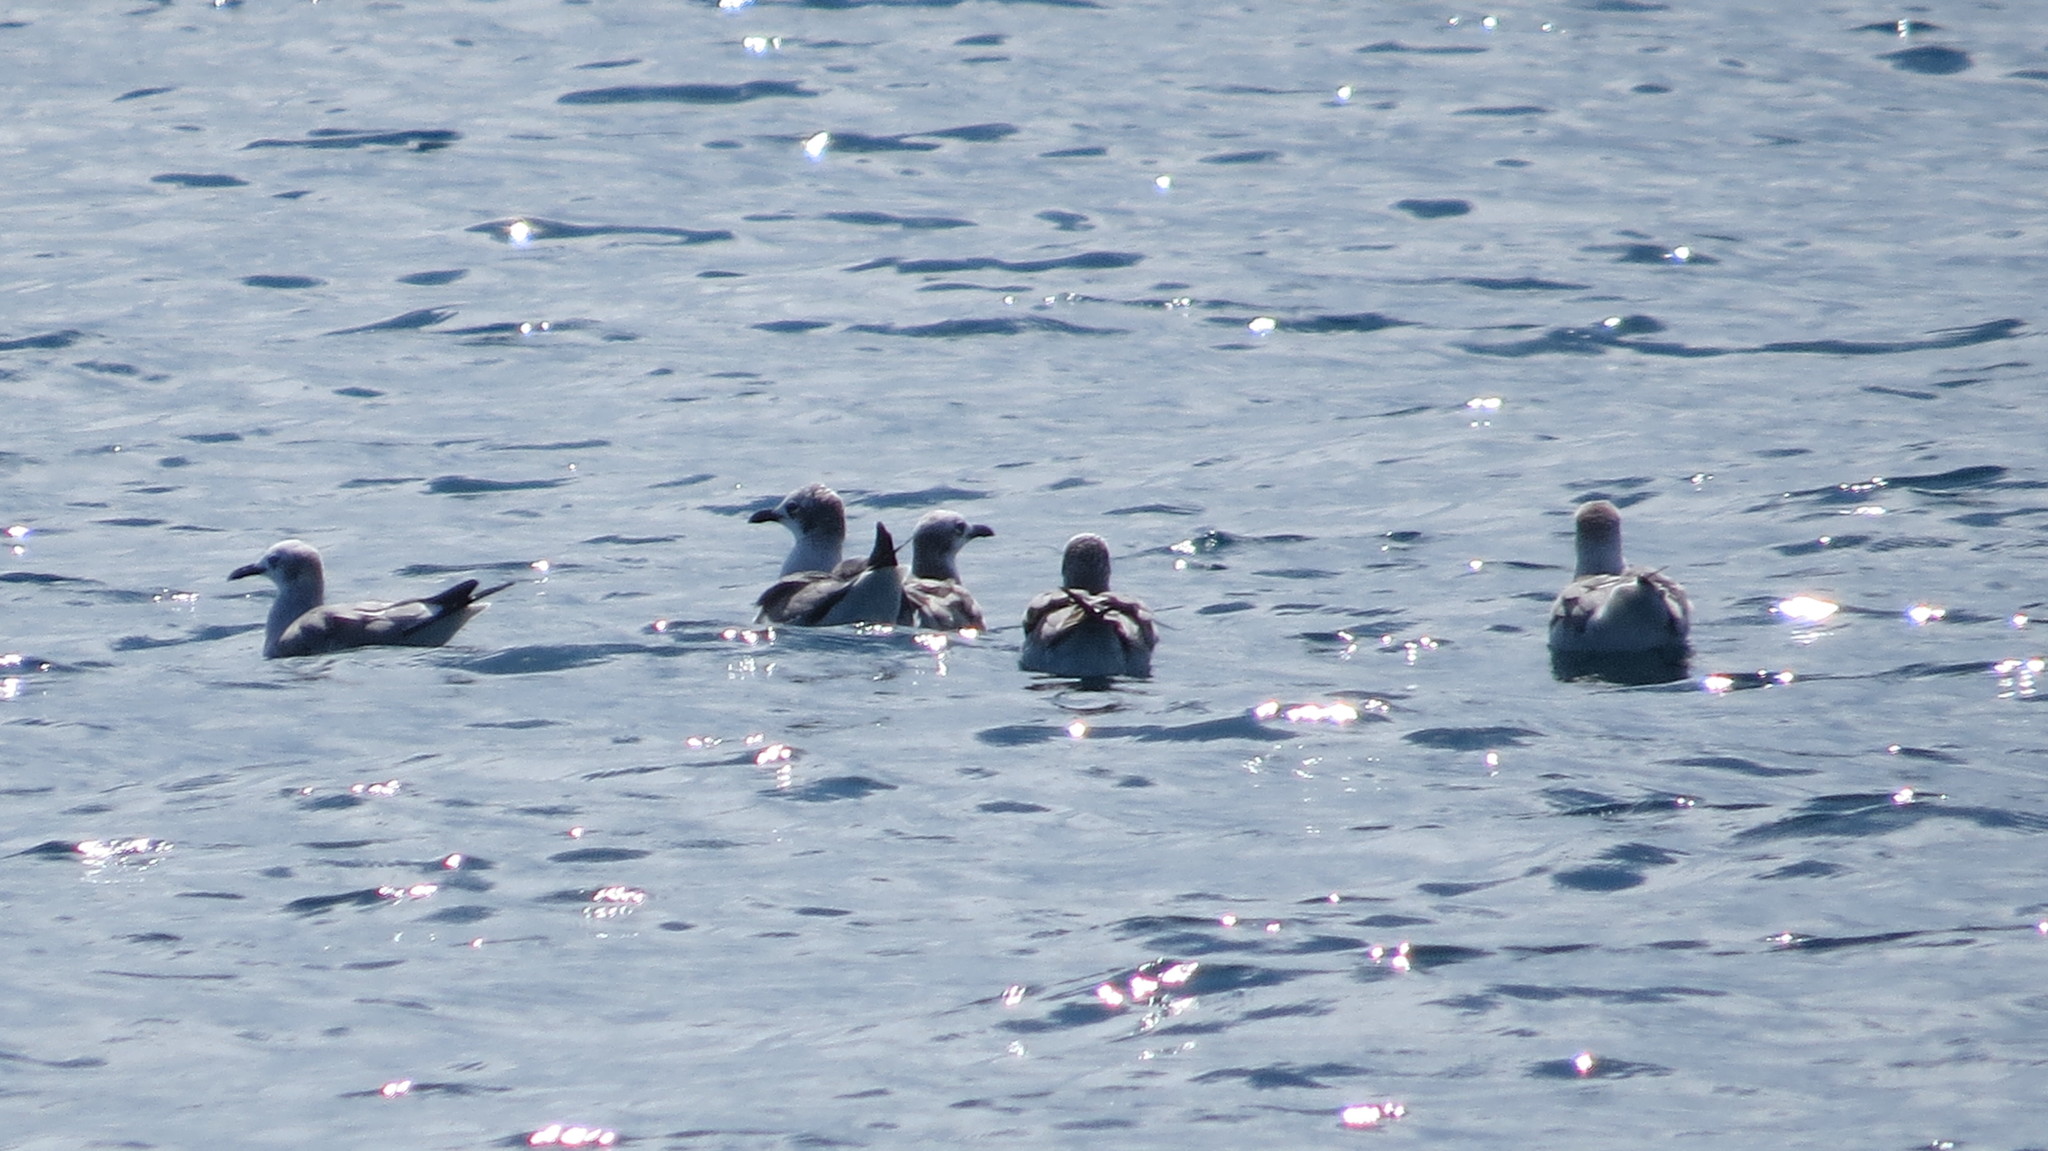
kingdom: Animalia
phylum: Chordata
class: Aves
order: Charadriiformes
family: Laridae
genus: Leucophaeus
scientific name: Leucophaeus atricilla
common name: Laughing gull
